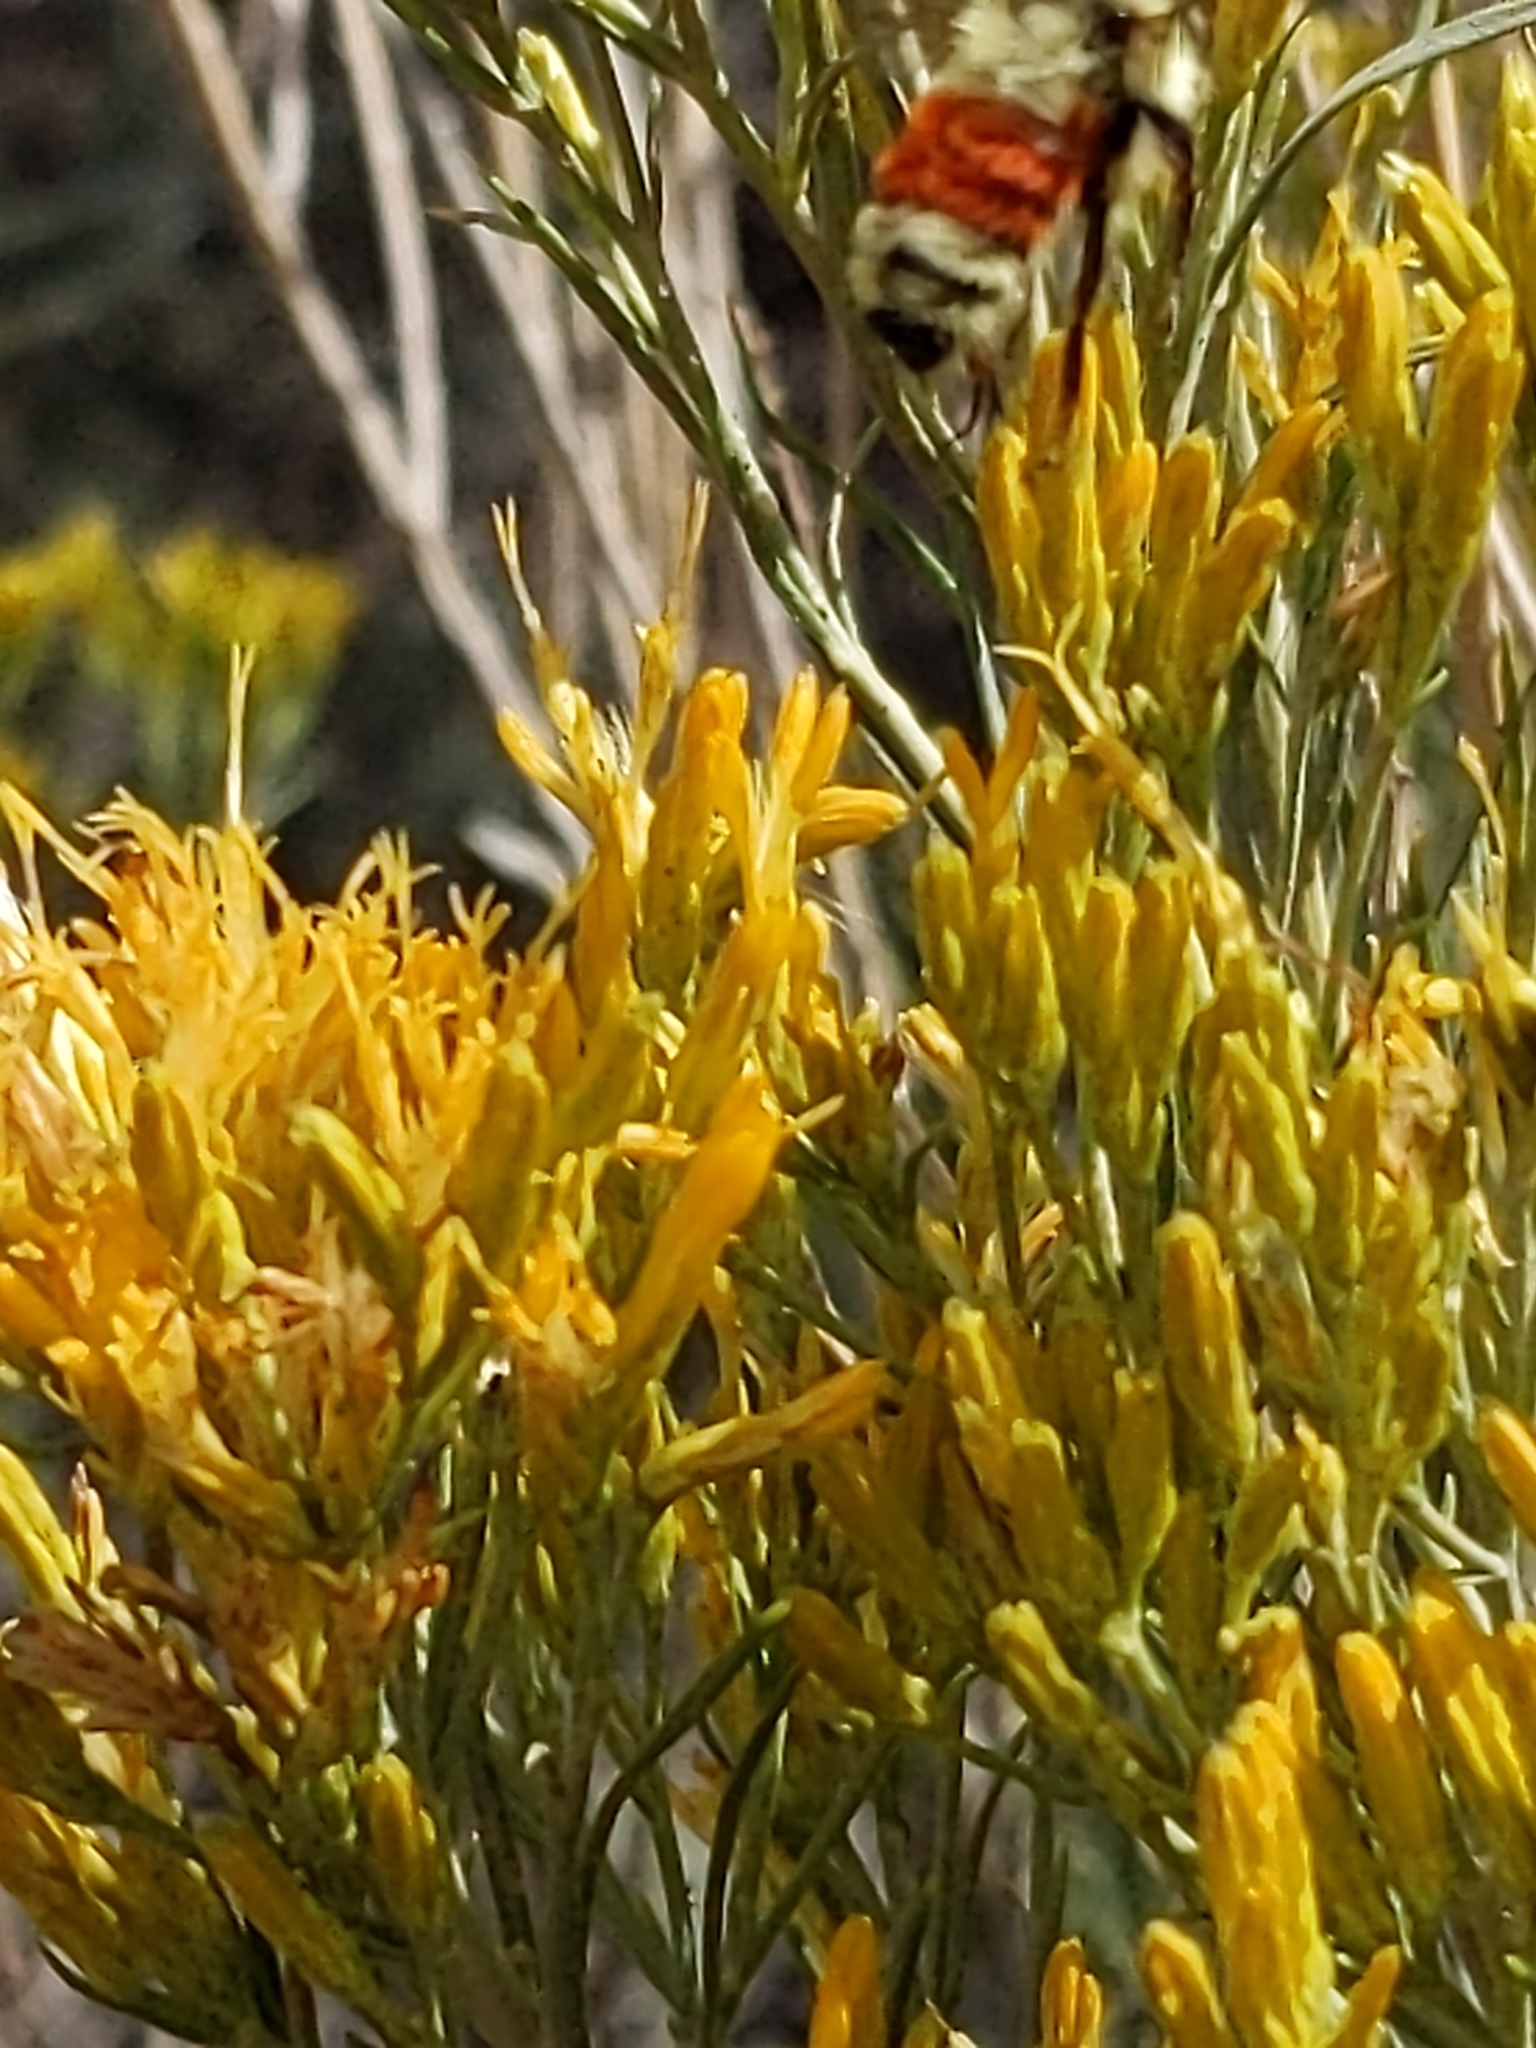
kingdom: Animalia
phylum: Arthropoda
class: Insecta
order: Hymenoptera
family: Apidae
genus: Bombus
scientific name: Bombus bifarius
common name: Two form bumble bee
